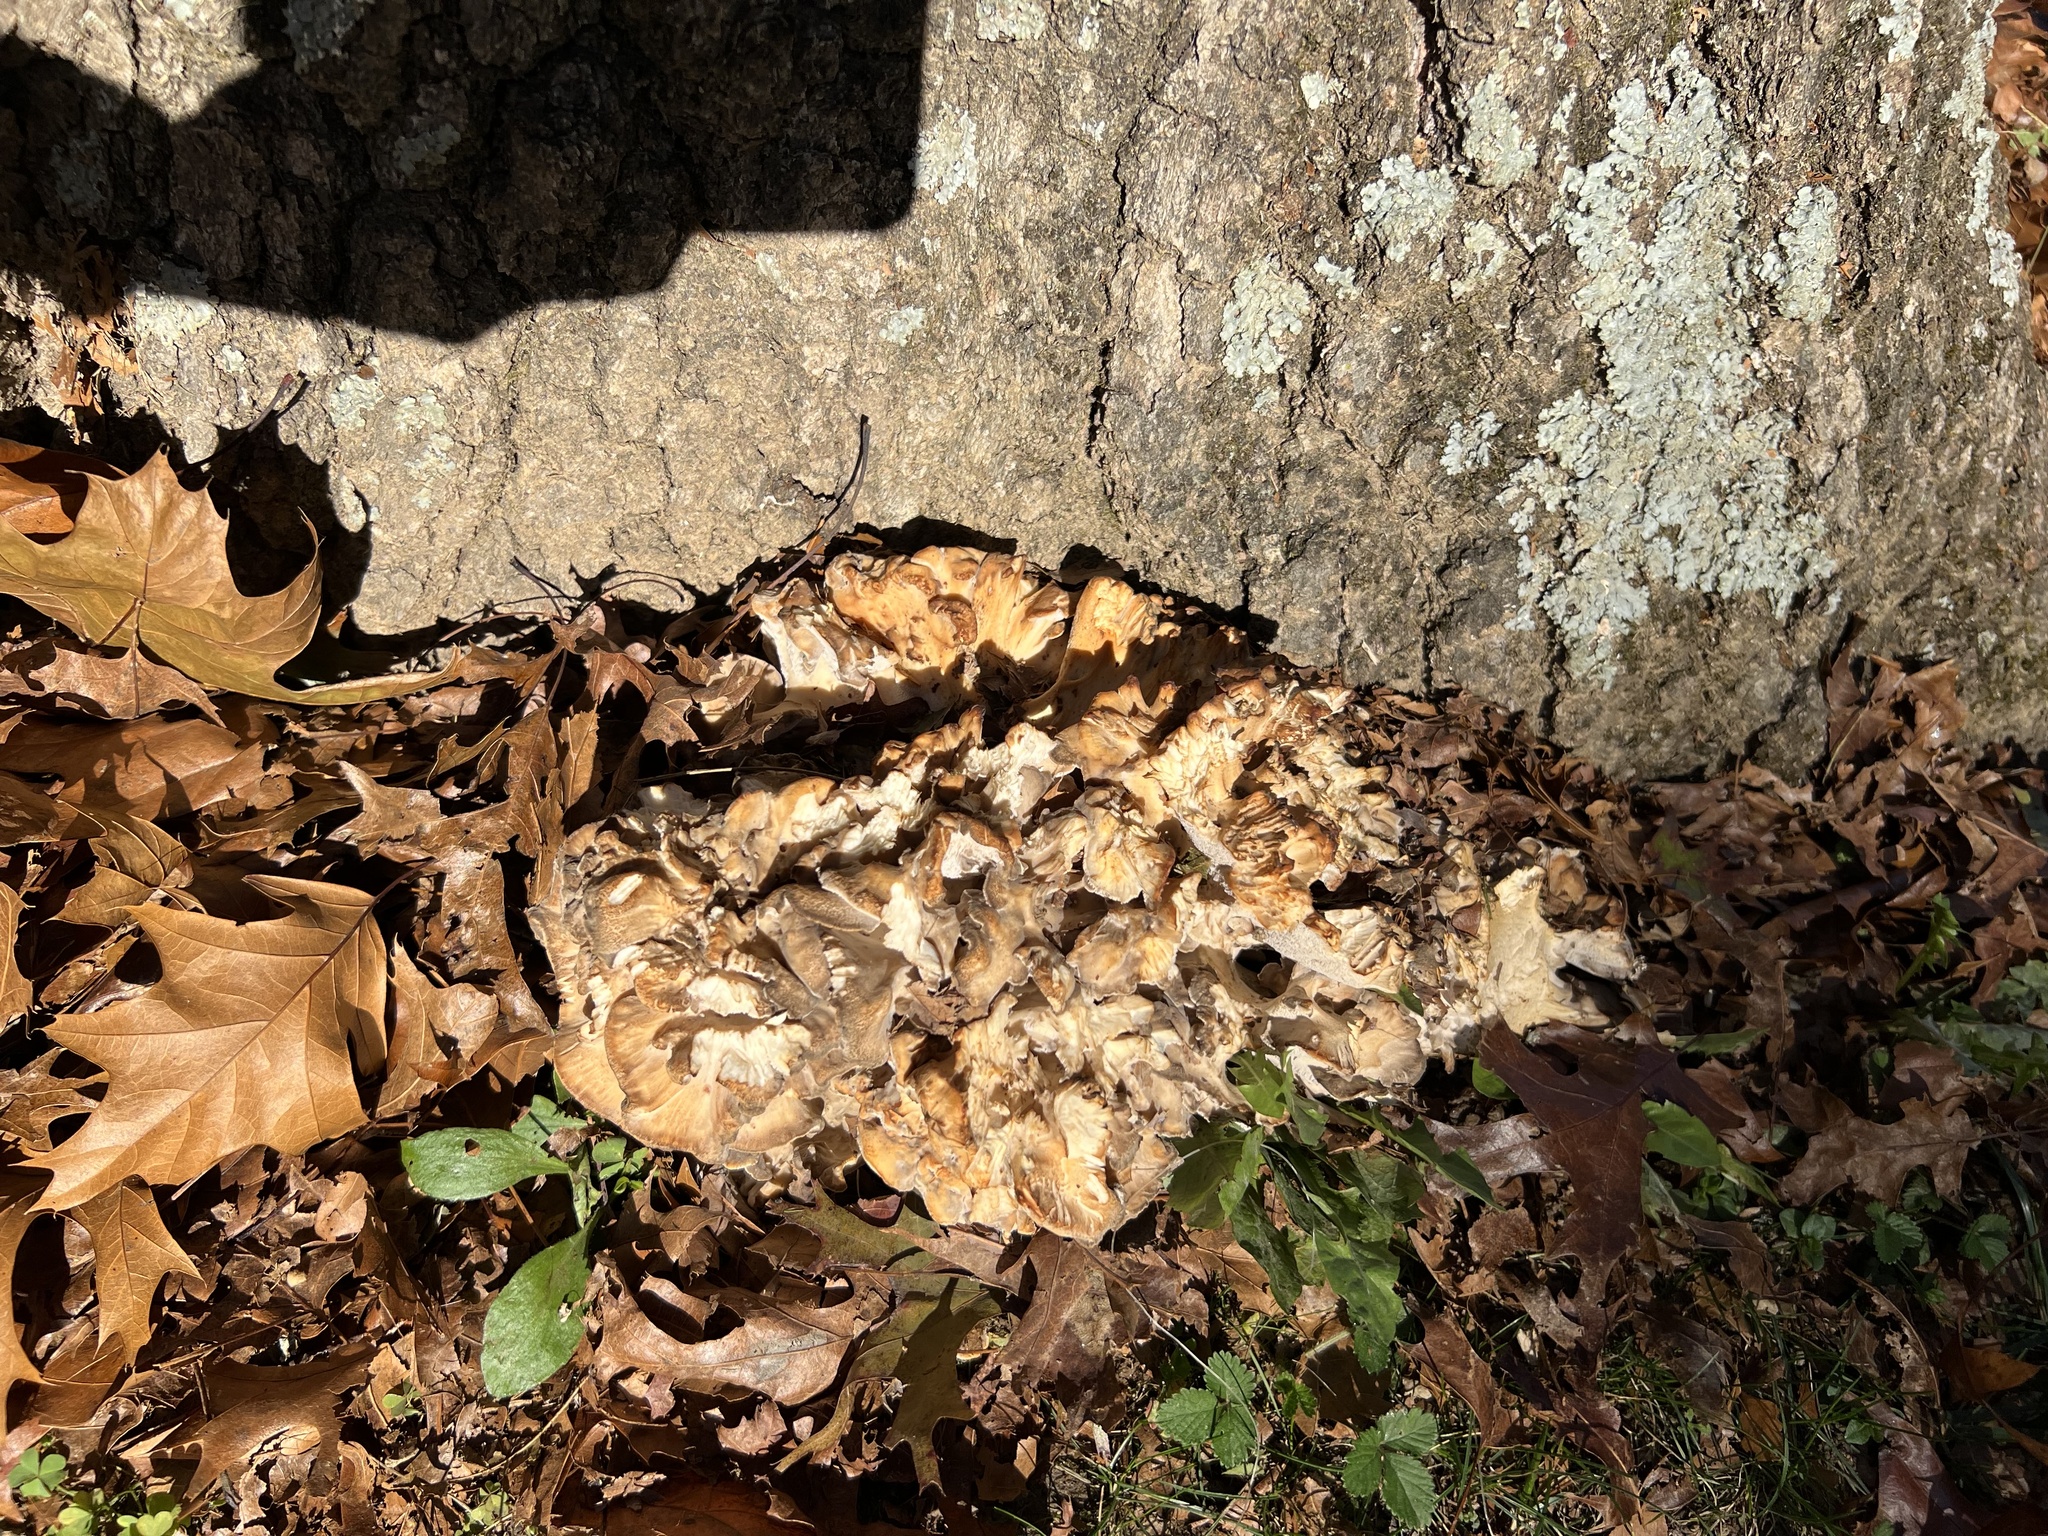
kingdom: Fungi
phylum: Basidiomycota
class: Agaricomycetes
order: Polyporales
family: Grifolaceae
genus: Grifola
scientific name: Grifola frondosa
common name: Hen of the woods
